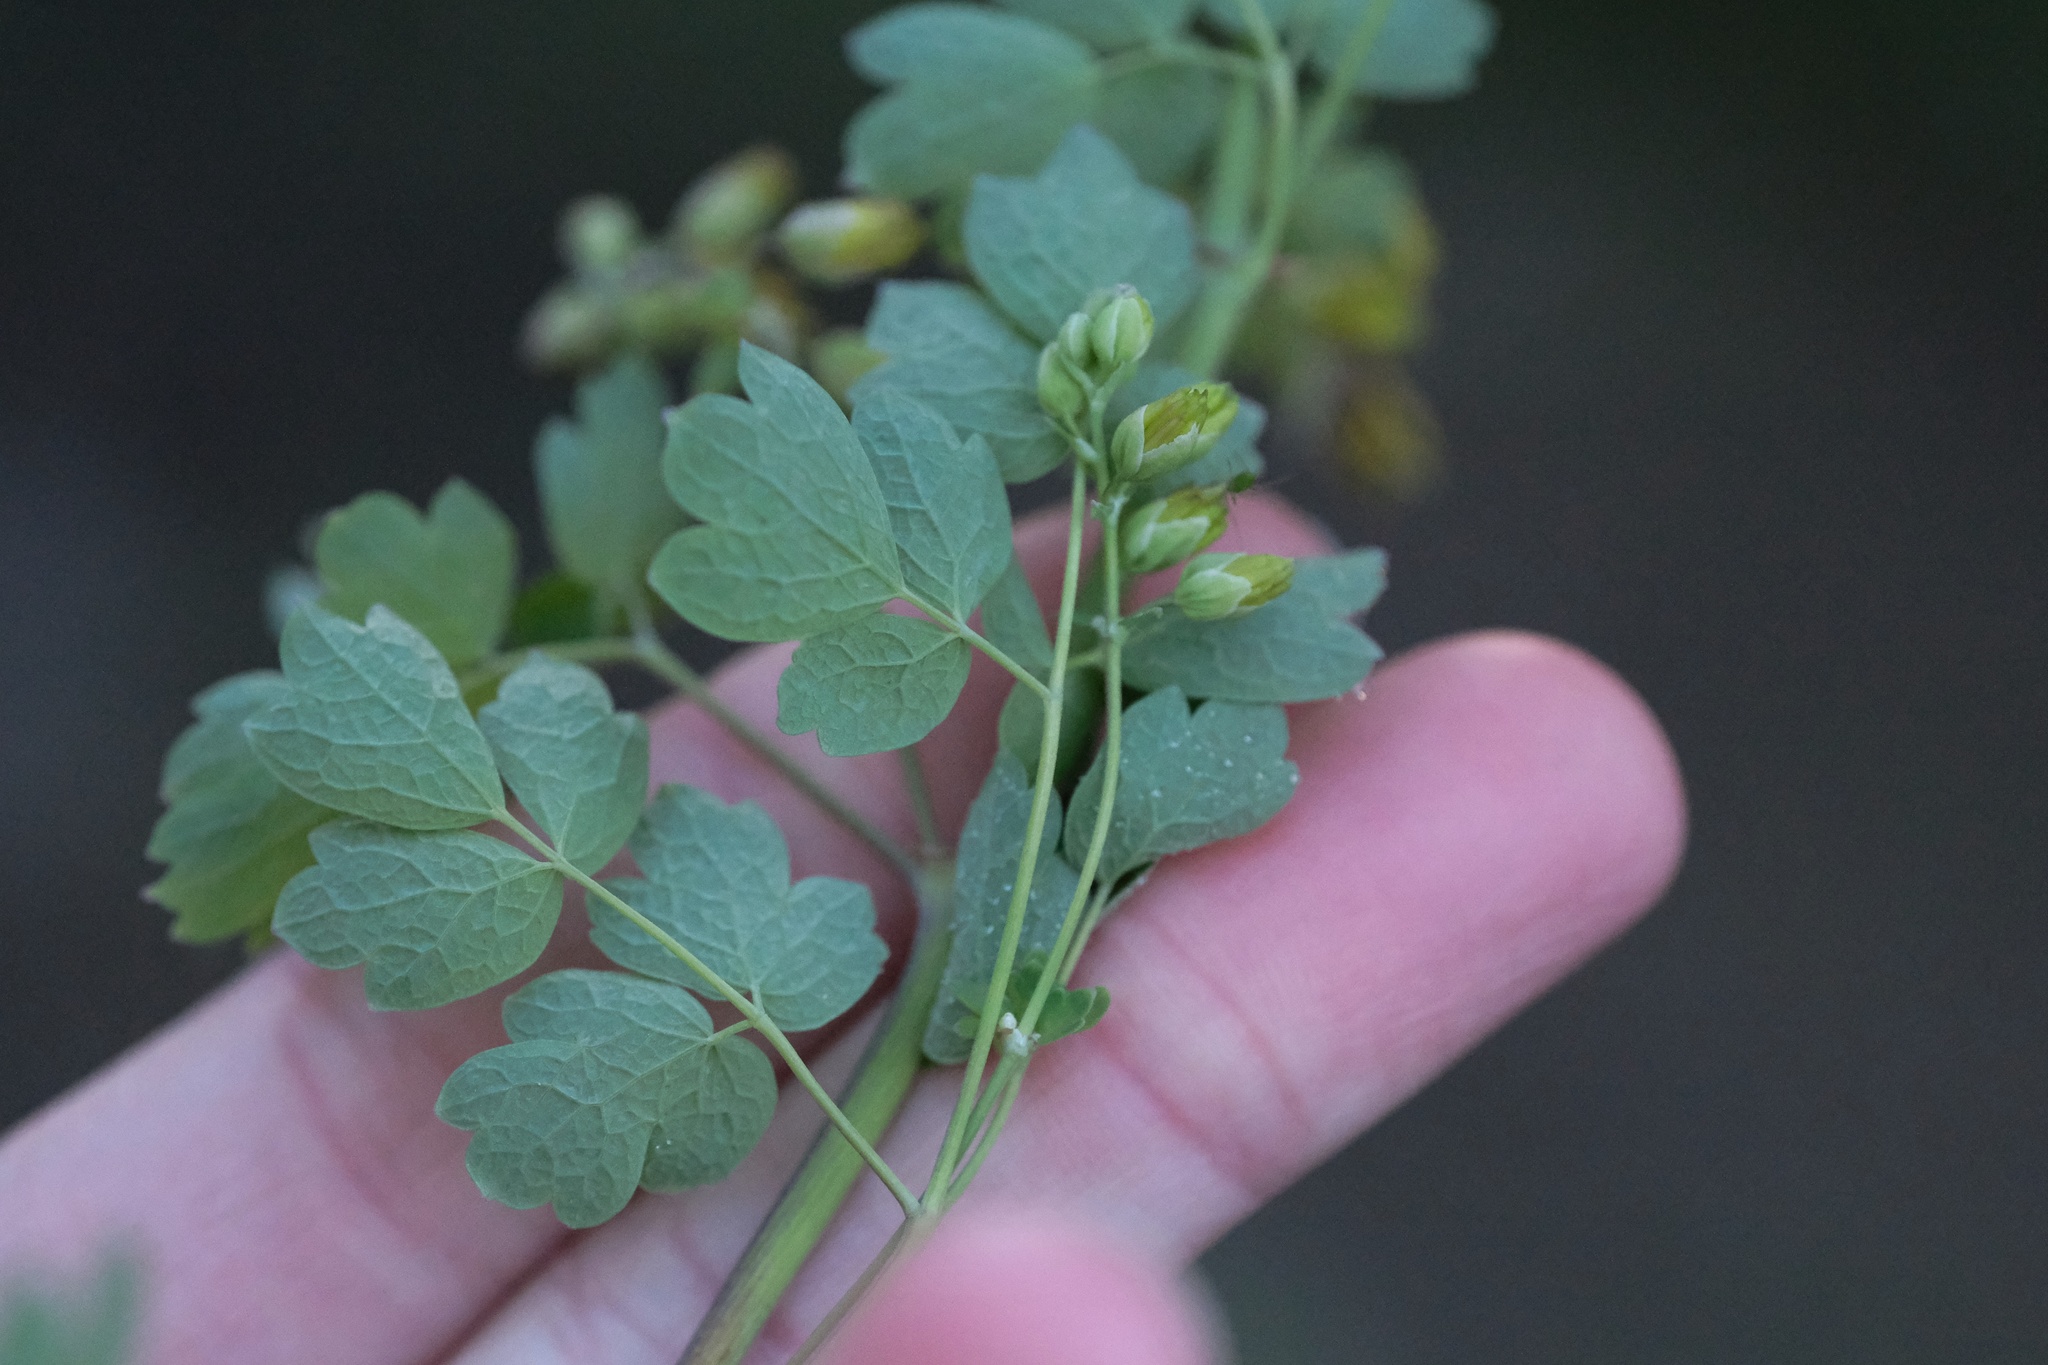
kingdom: Plantae
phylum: Tracheophyta
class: Magnoliopsida
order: Ranunculales
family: Ranunculaceae
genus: Thalictrum
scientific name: Thalictrum fendleri
